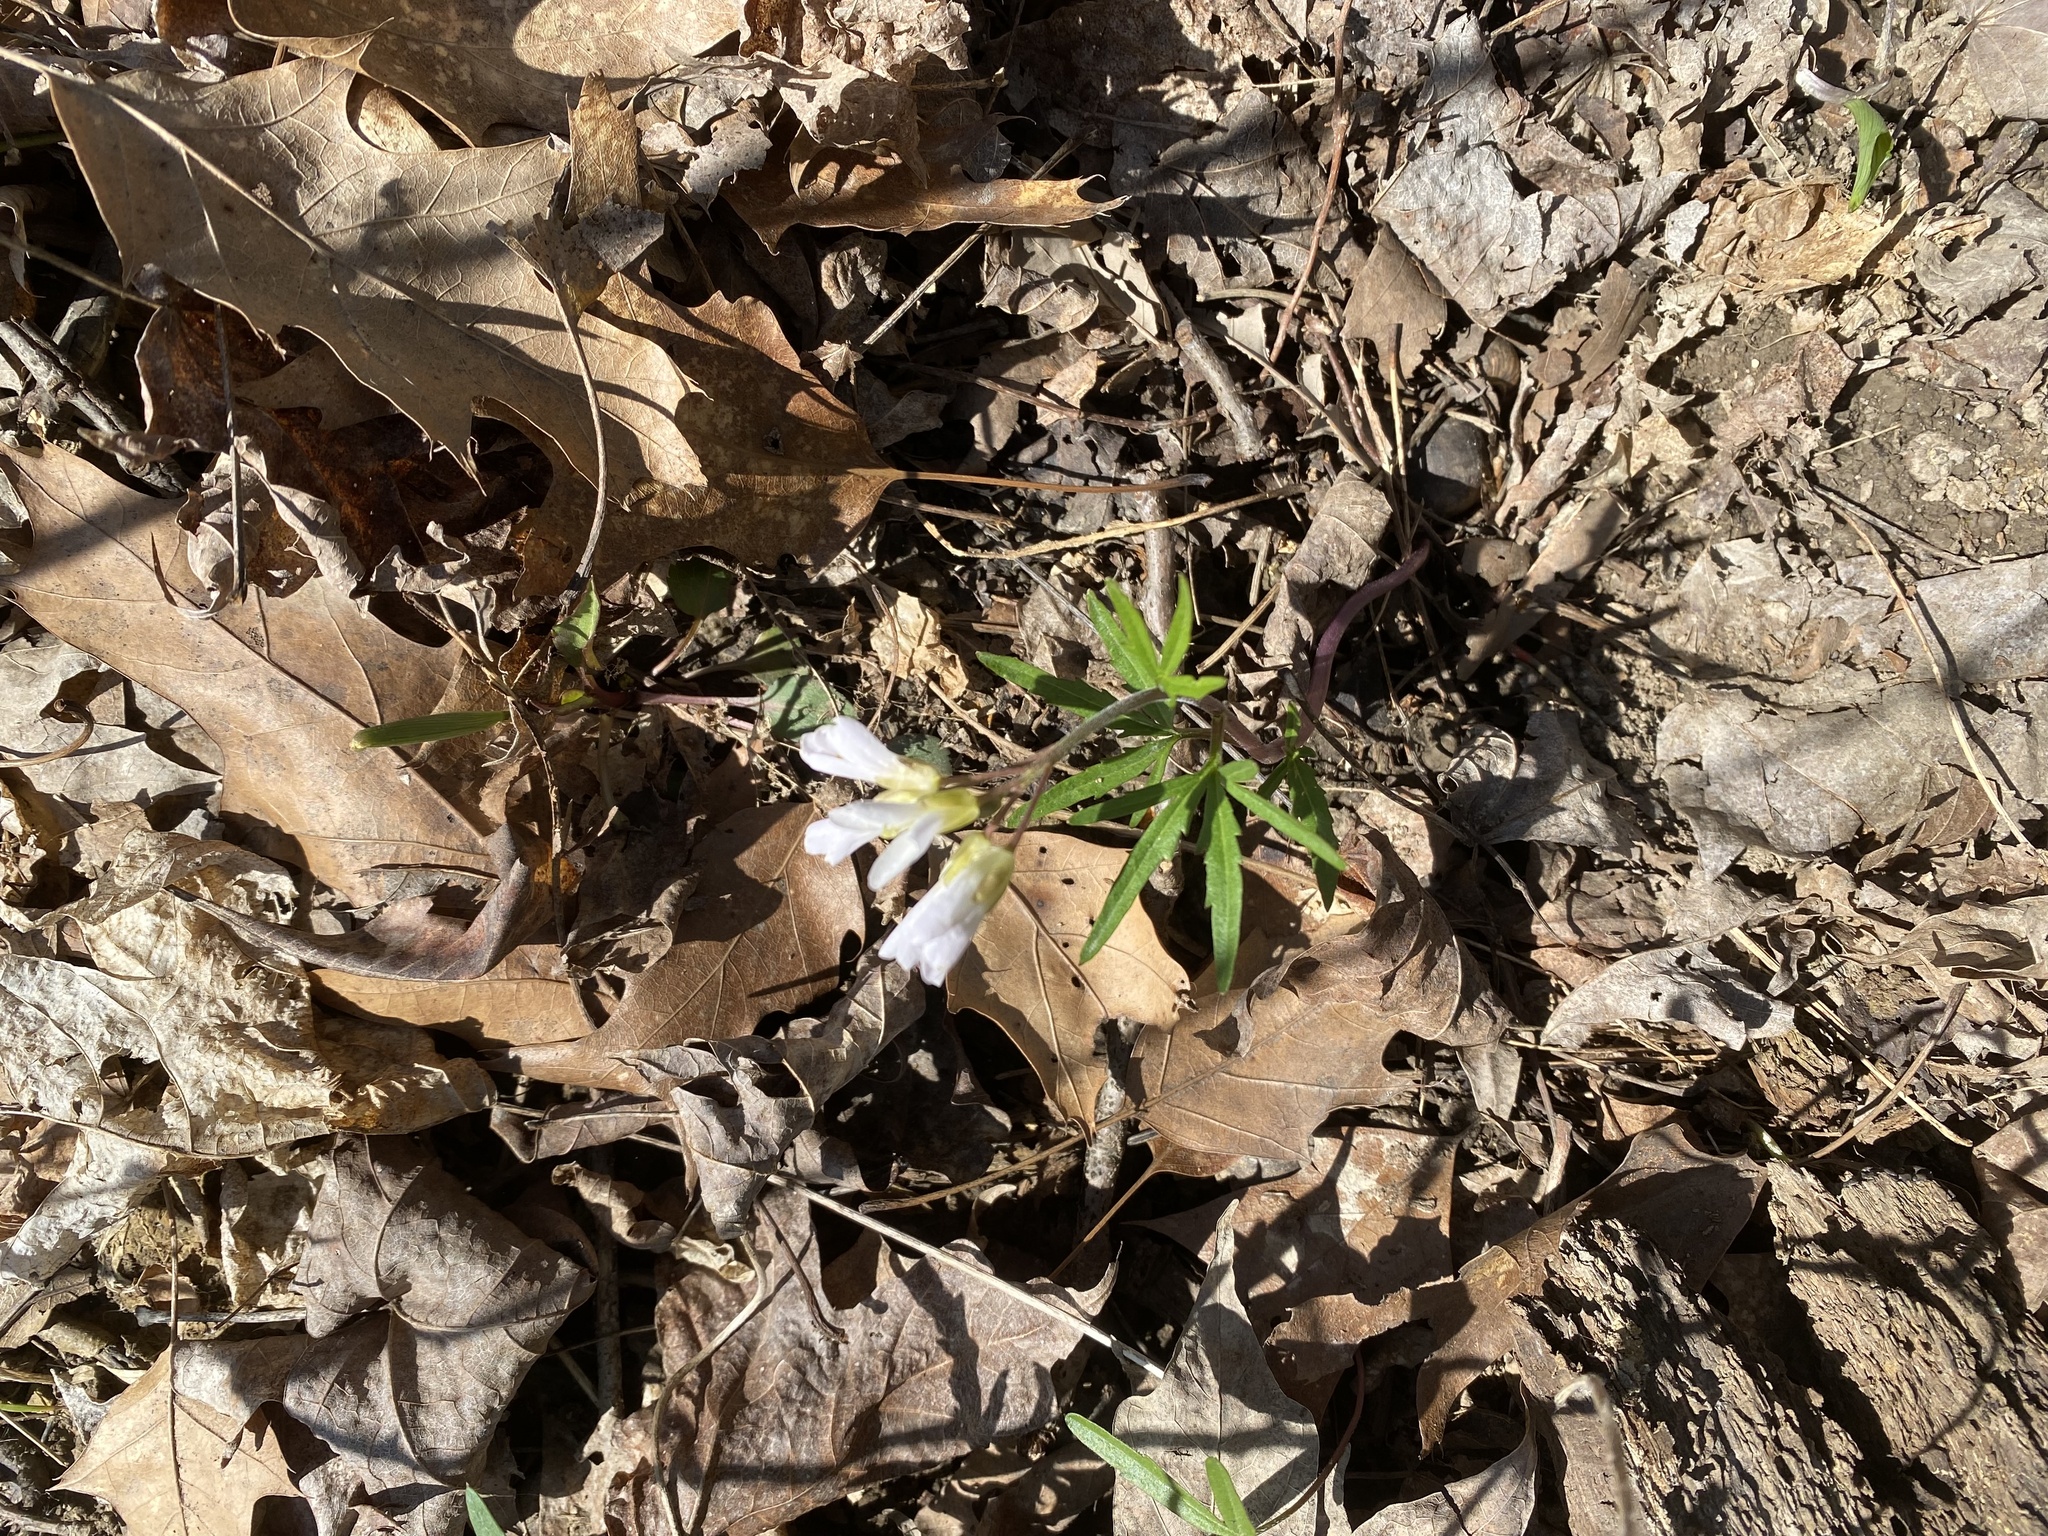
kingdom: Plantae
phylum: Tracheophyta
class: Magnoliopsida
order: Brassicales
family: Brassicaceae
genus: Cardamine
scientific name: Cardamine concatenata
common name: Cut-leaf toothcup
